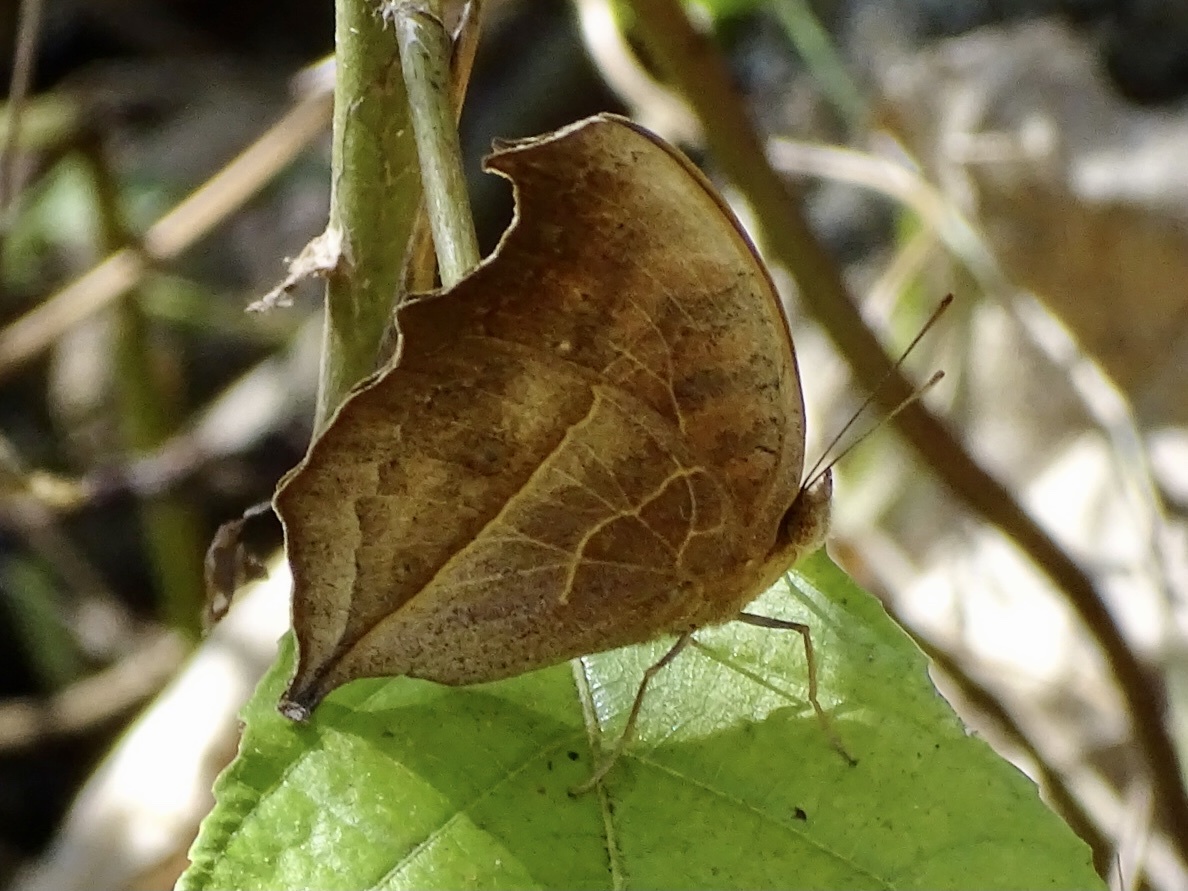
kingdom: Animalia
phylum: Arthropoda
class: Insecta
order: Lepidoptera
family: Nymphalidae
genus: Junonia
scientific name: Junonia almana
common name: Peacock pansy
